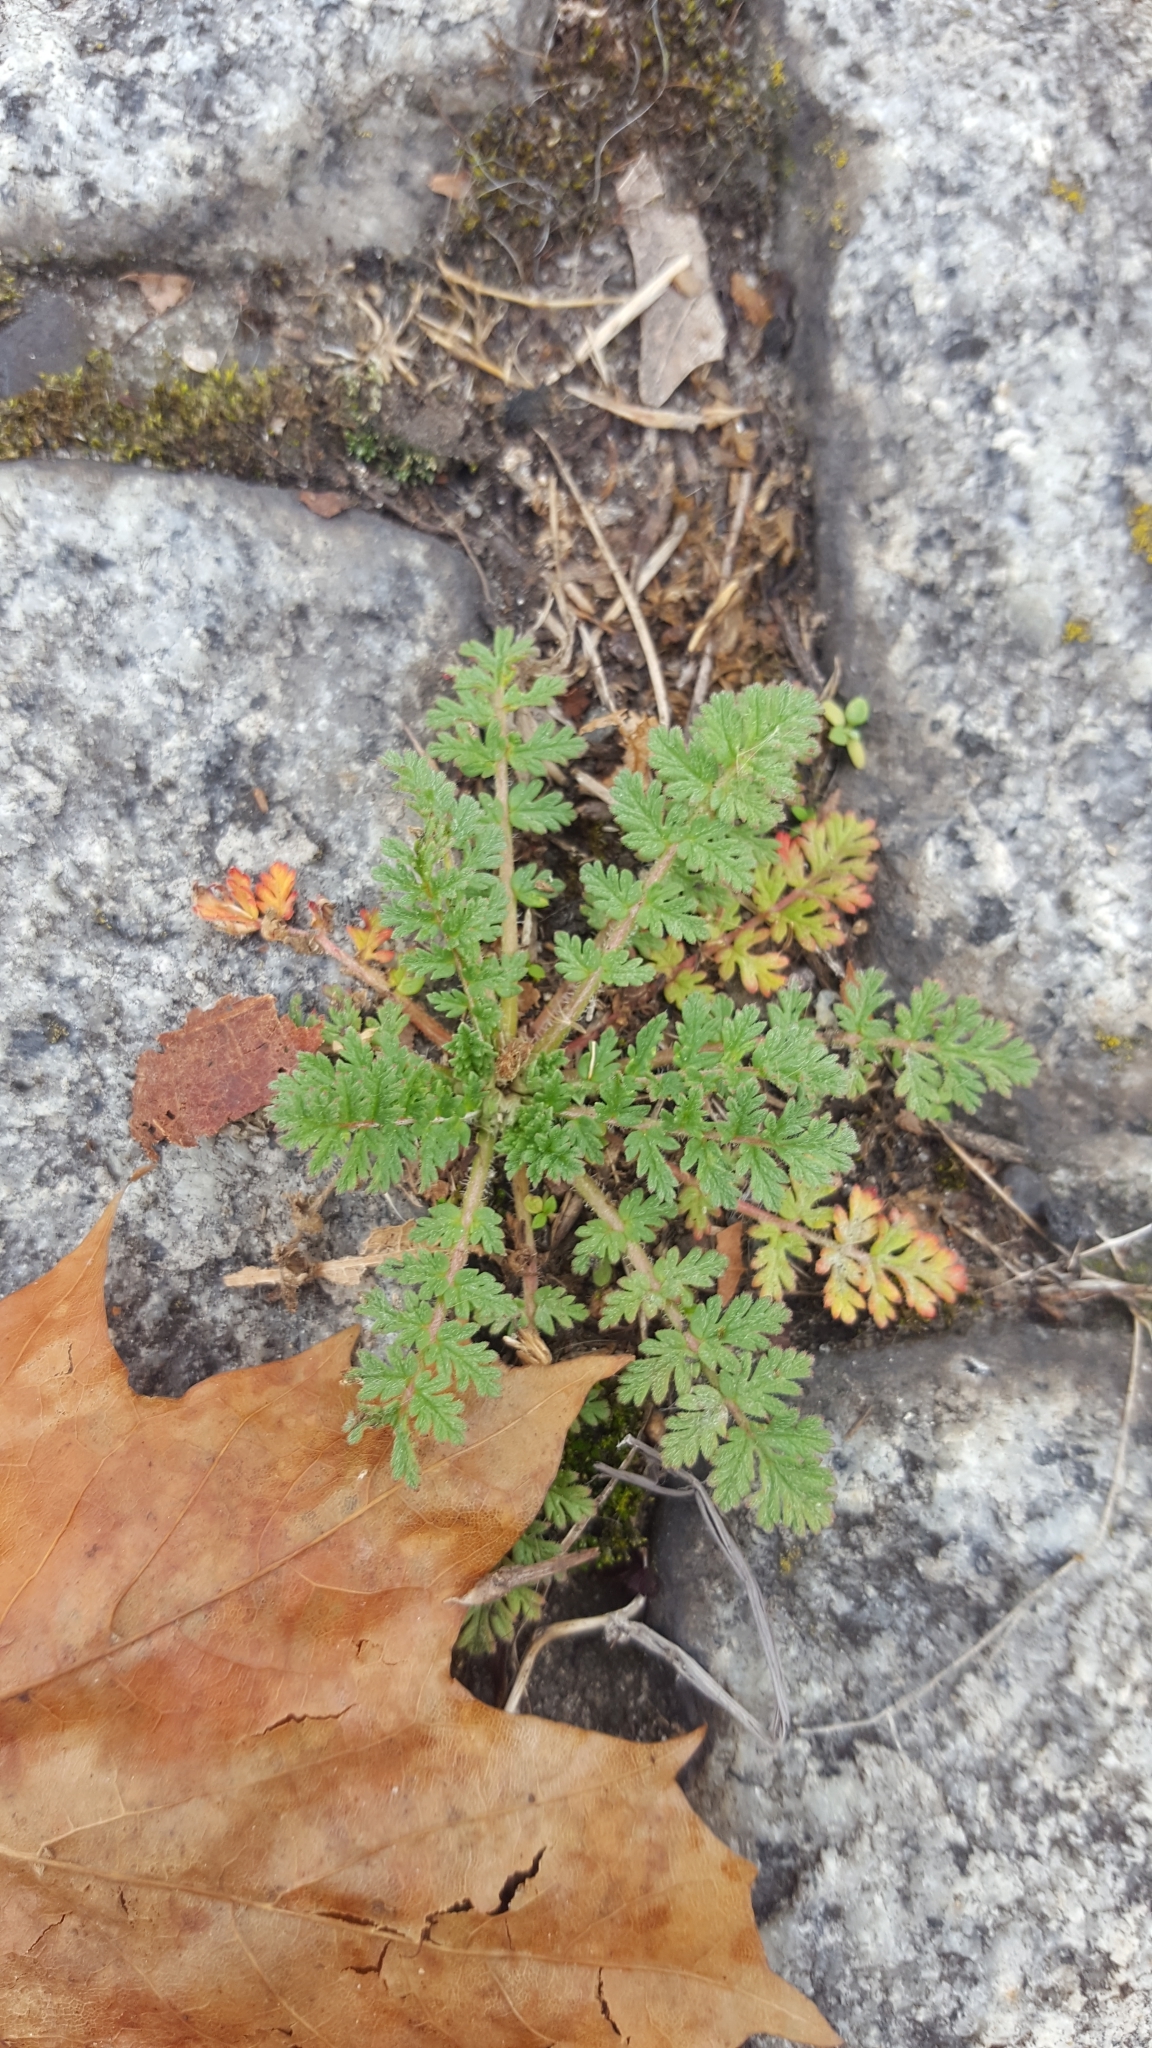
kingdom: Plantae
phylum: Tracheophyta
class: Magnoliopsida
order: Geraniales
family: Geraniaceae
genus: Erodium
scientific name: Erodium cicutarium
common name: Common stork's-bill
